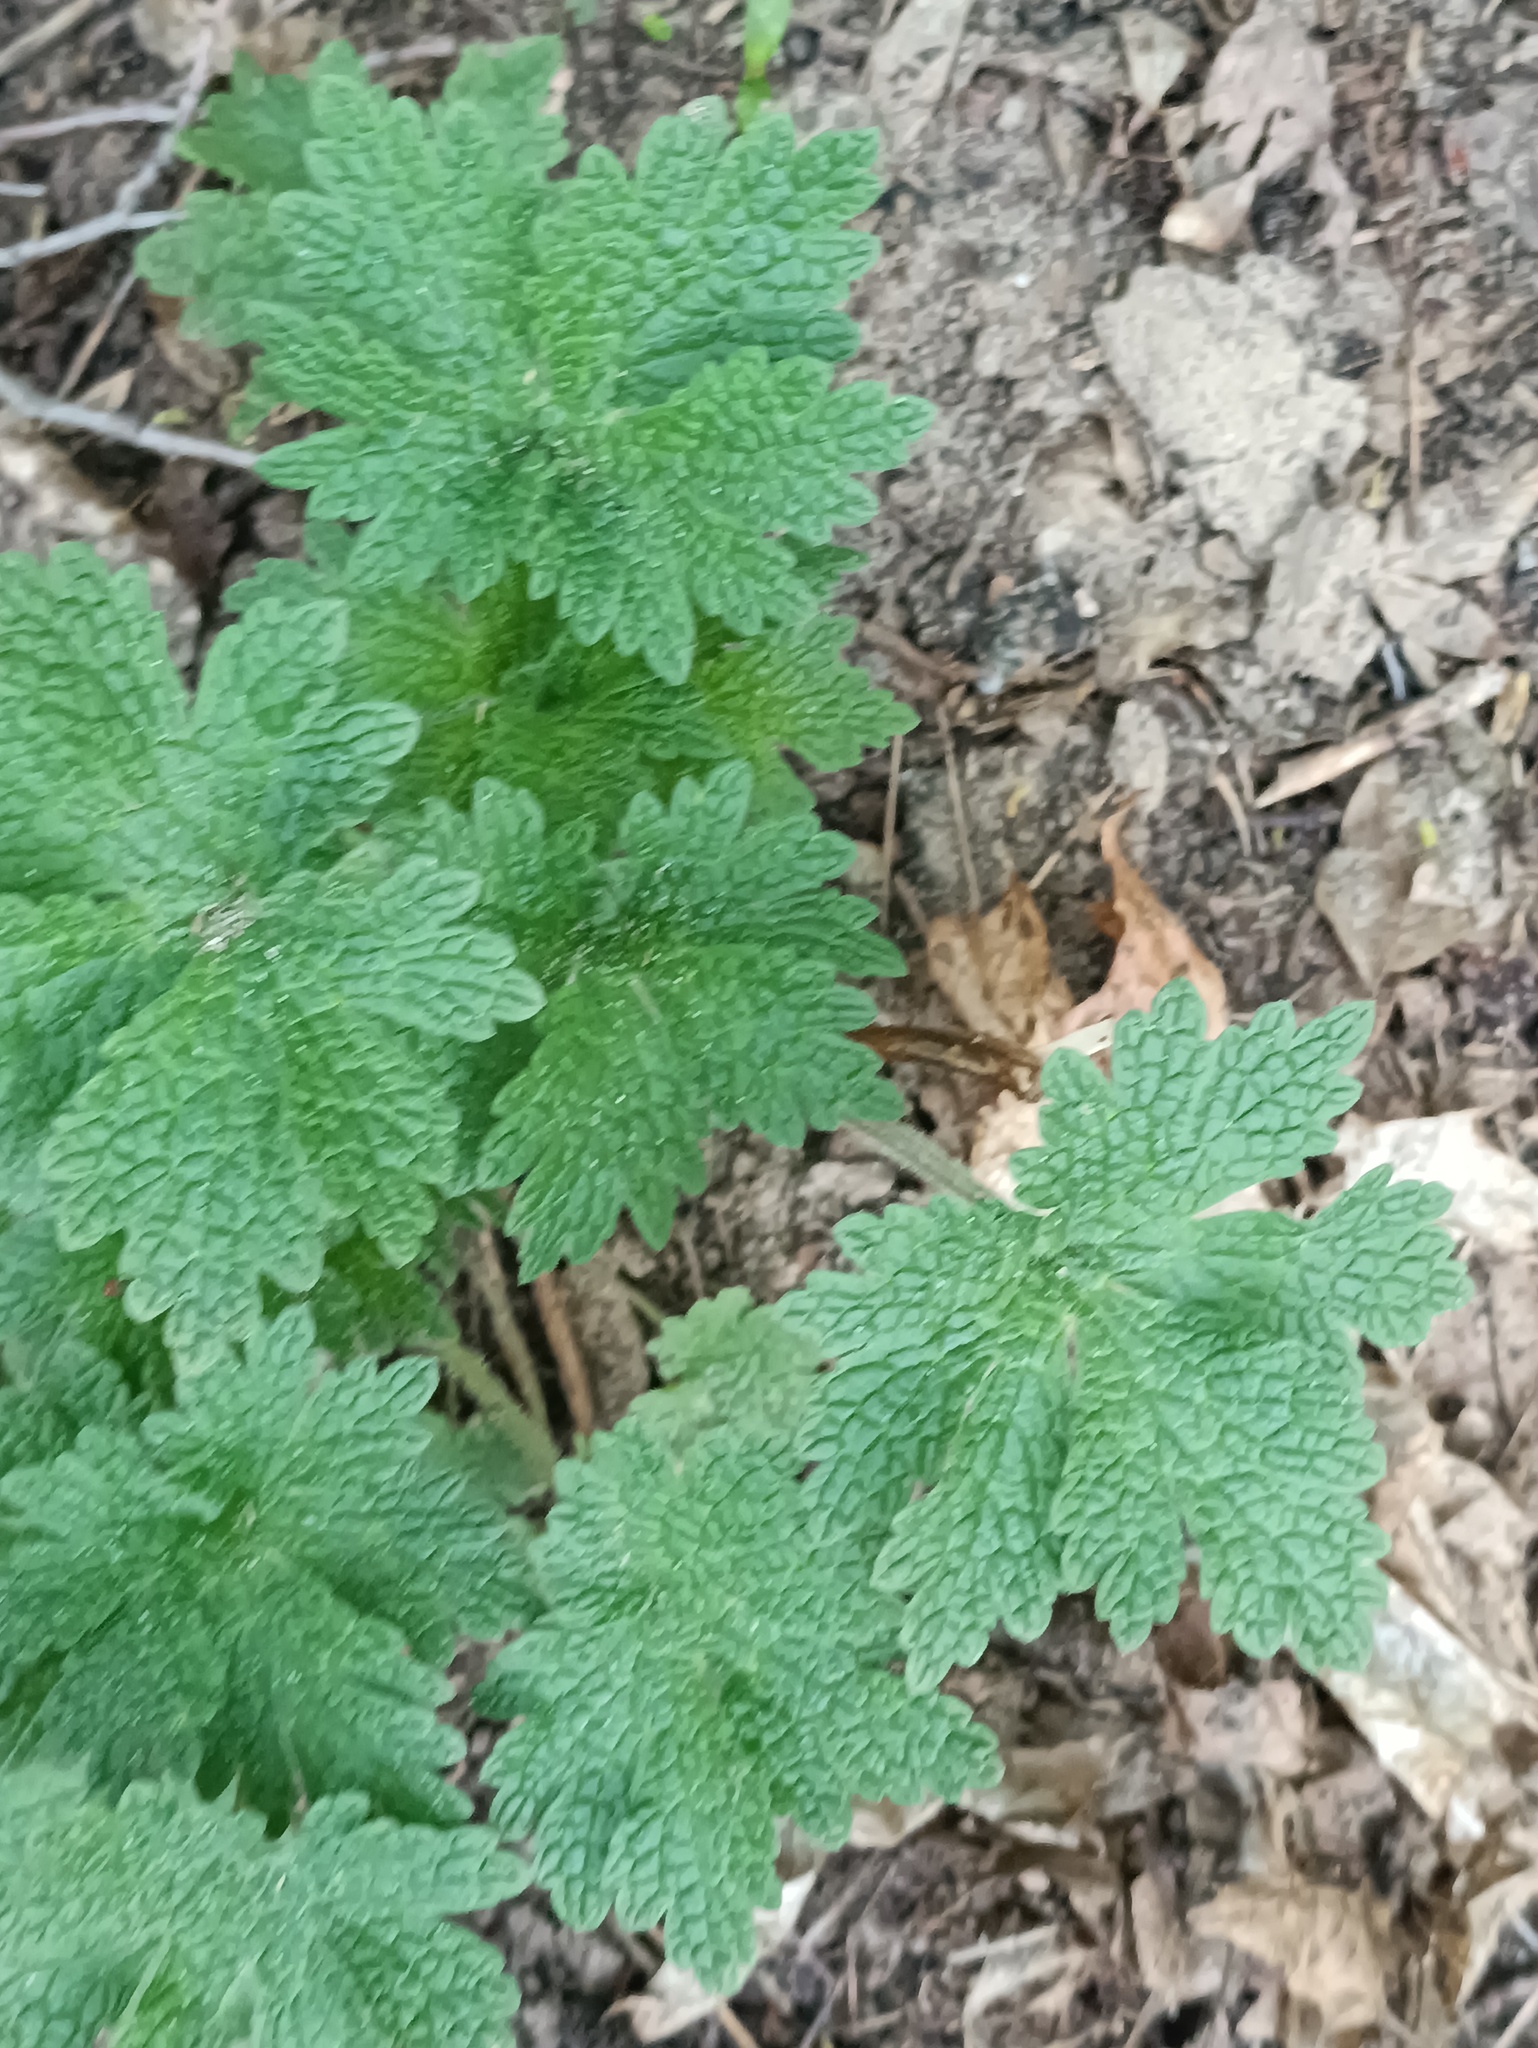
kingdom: Plantae
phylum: Tracheophyta
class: Magnoliopsida
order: Lamiales
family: Lamiaceae
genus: Leonurus
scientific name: Leonurus quinquelobatus
